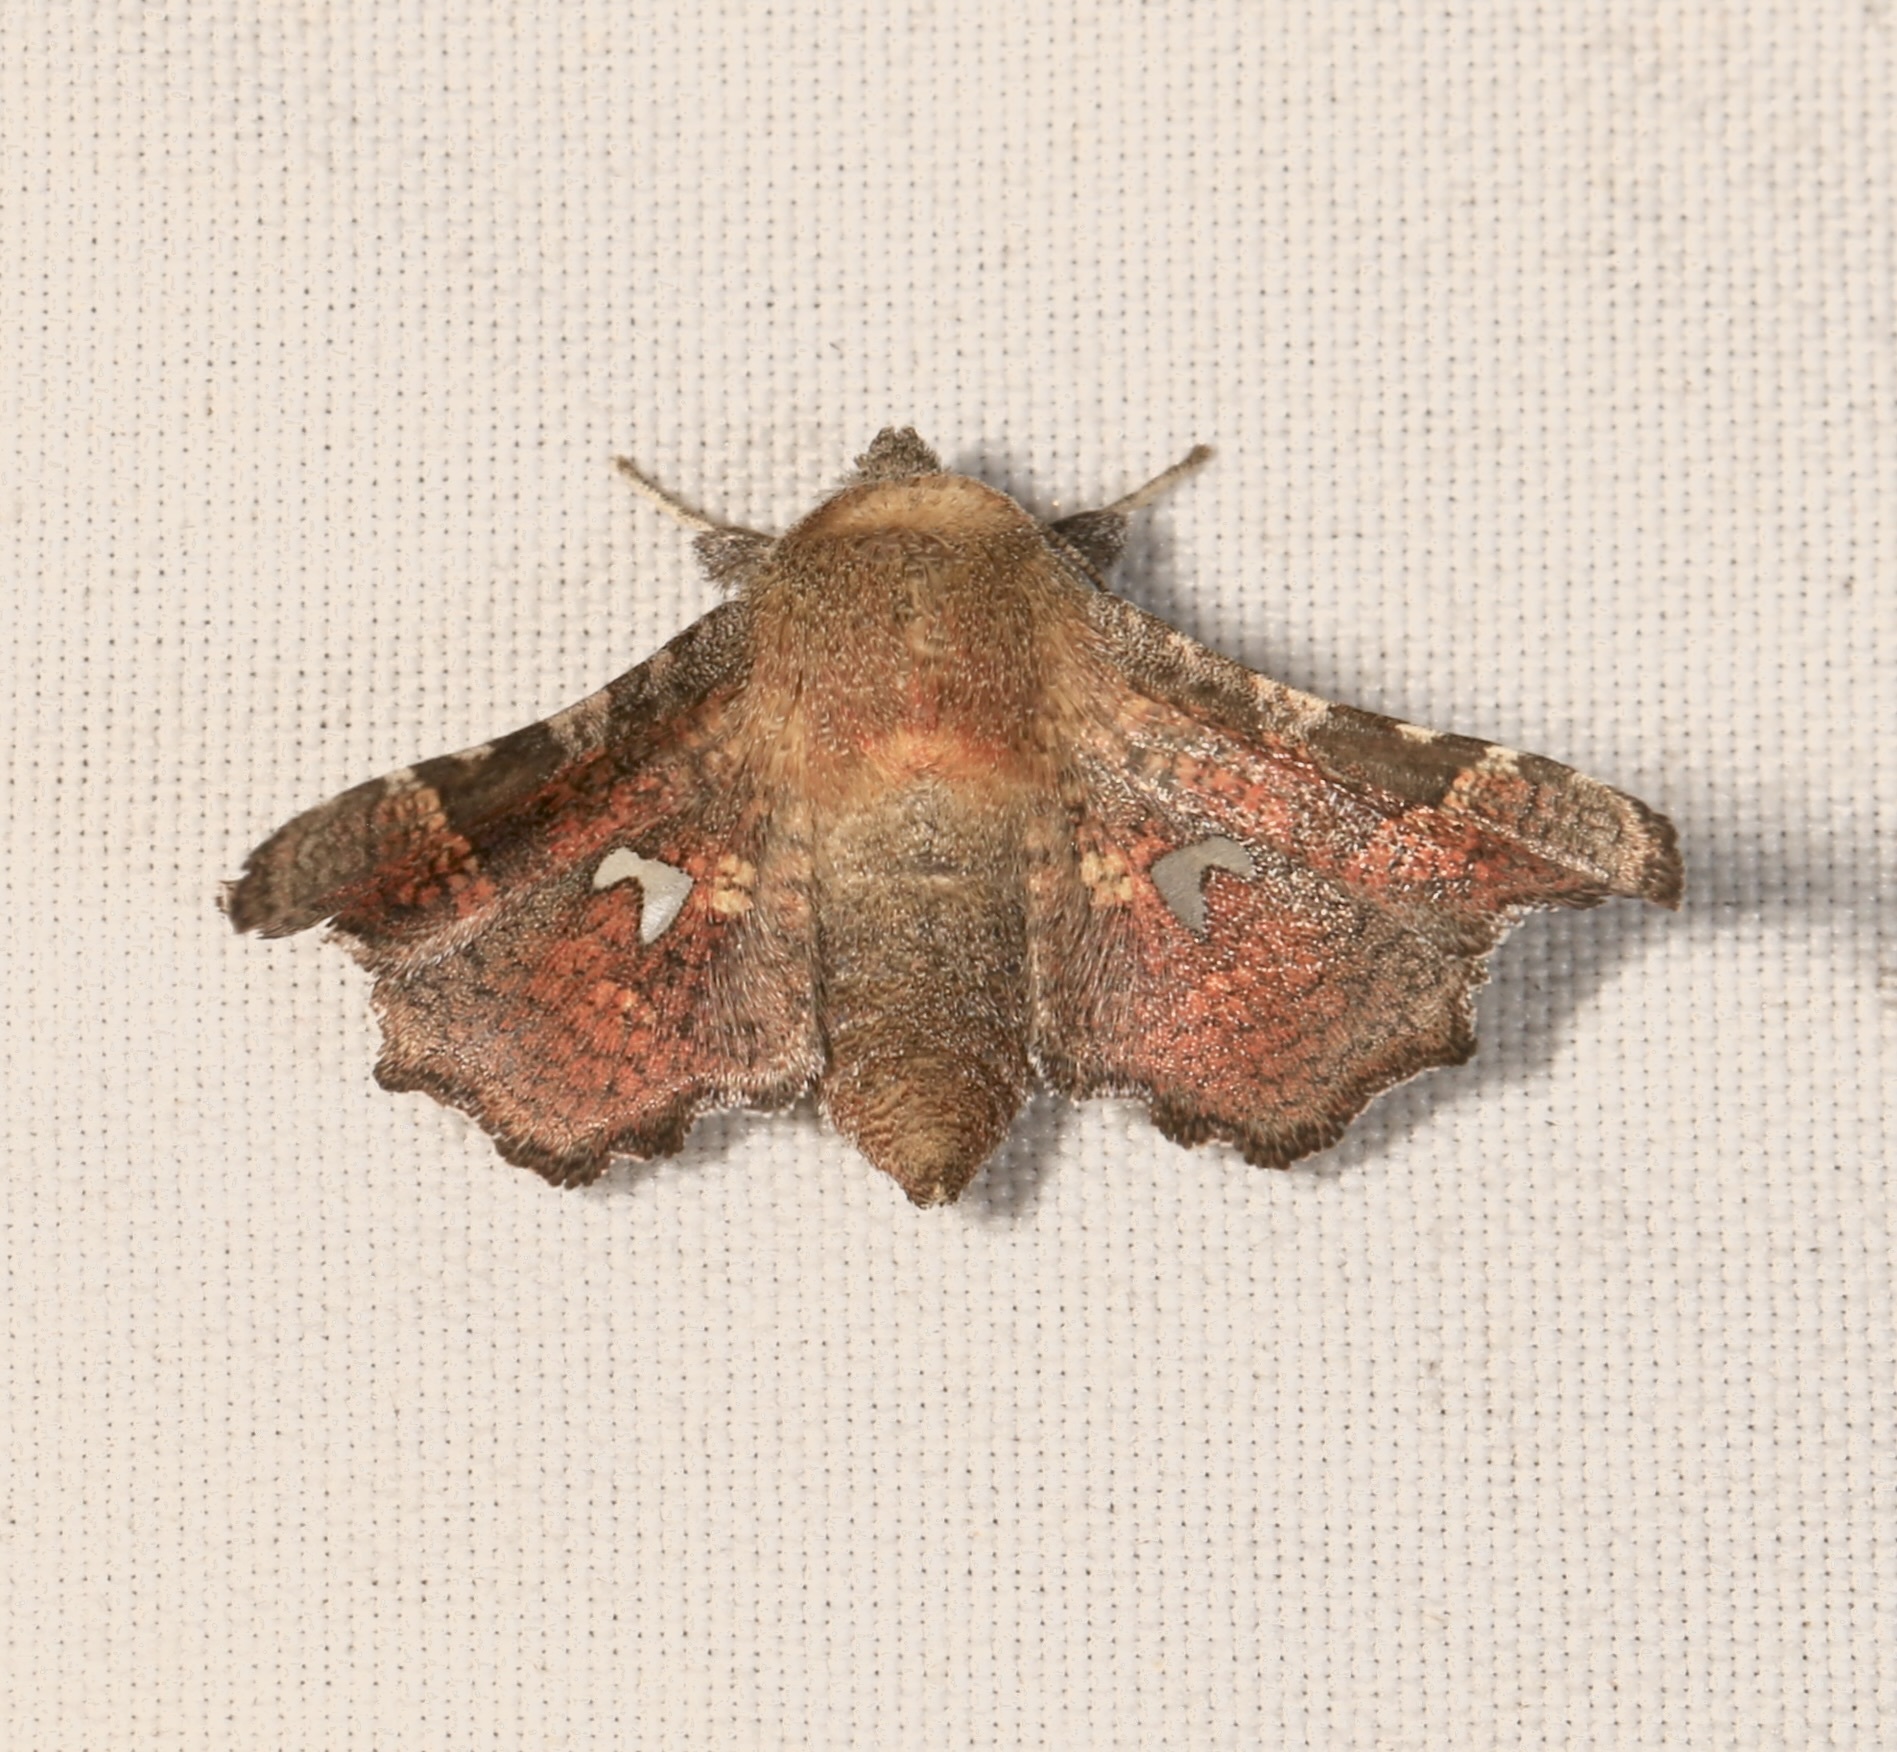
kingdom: Animalia
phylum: Arthropoda
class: Insecta
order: Lepidoptera
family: Thyrididae
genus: Dysodia
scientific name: Dysodia granulata
